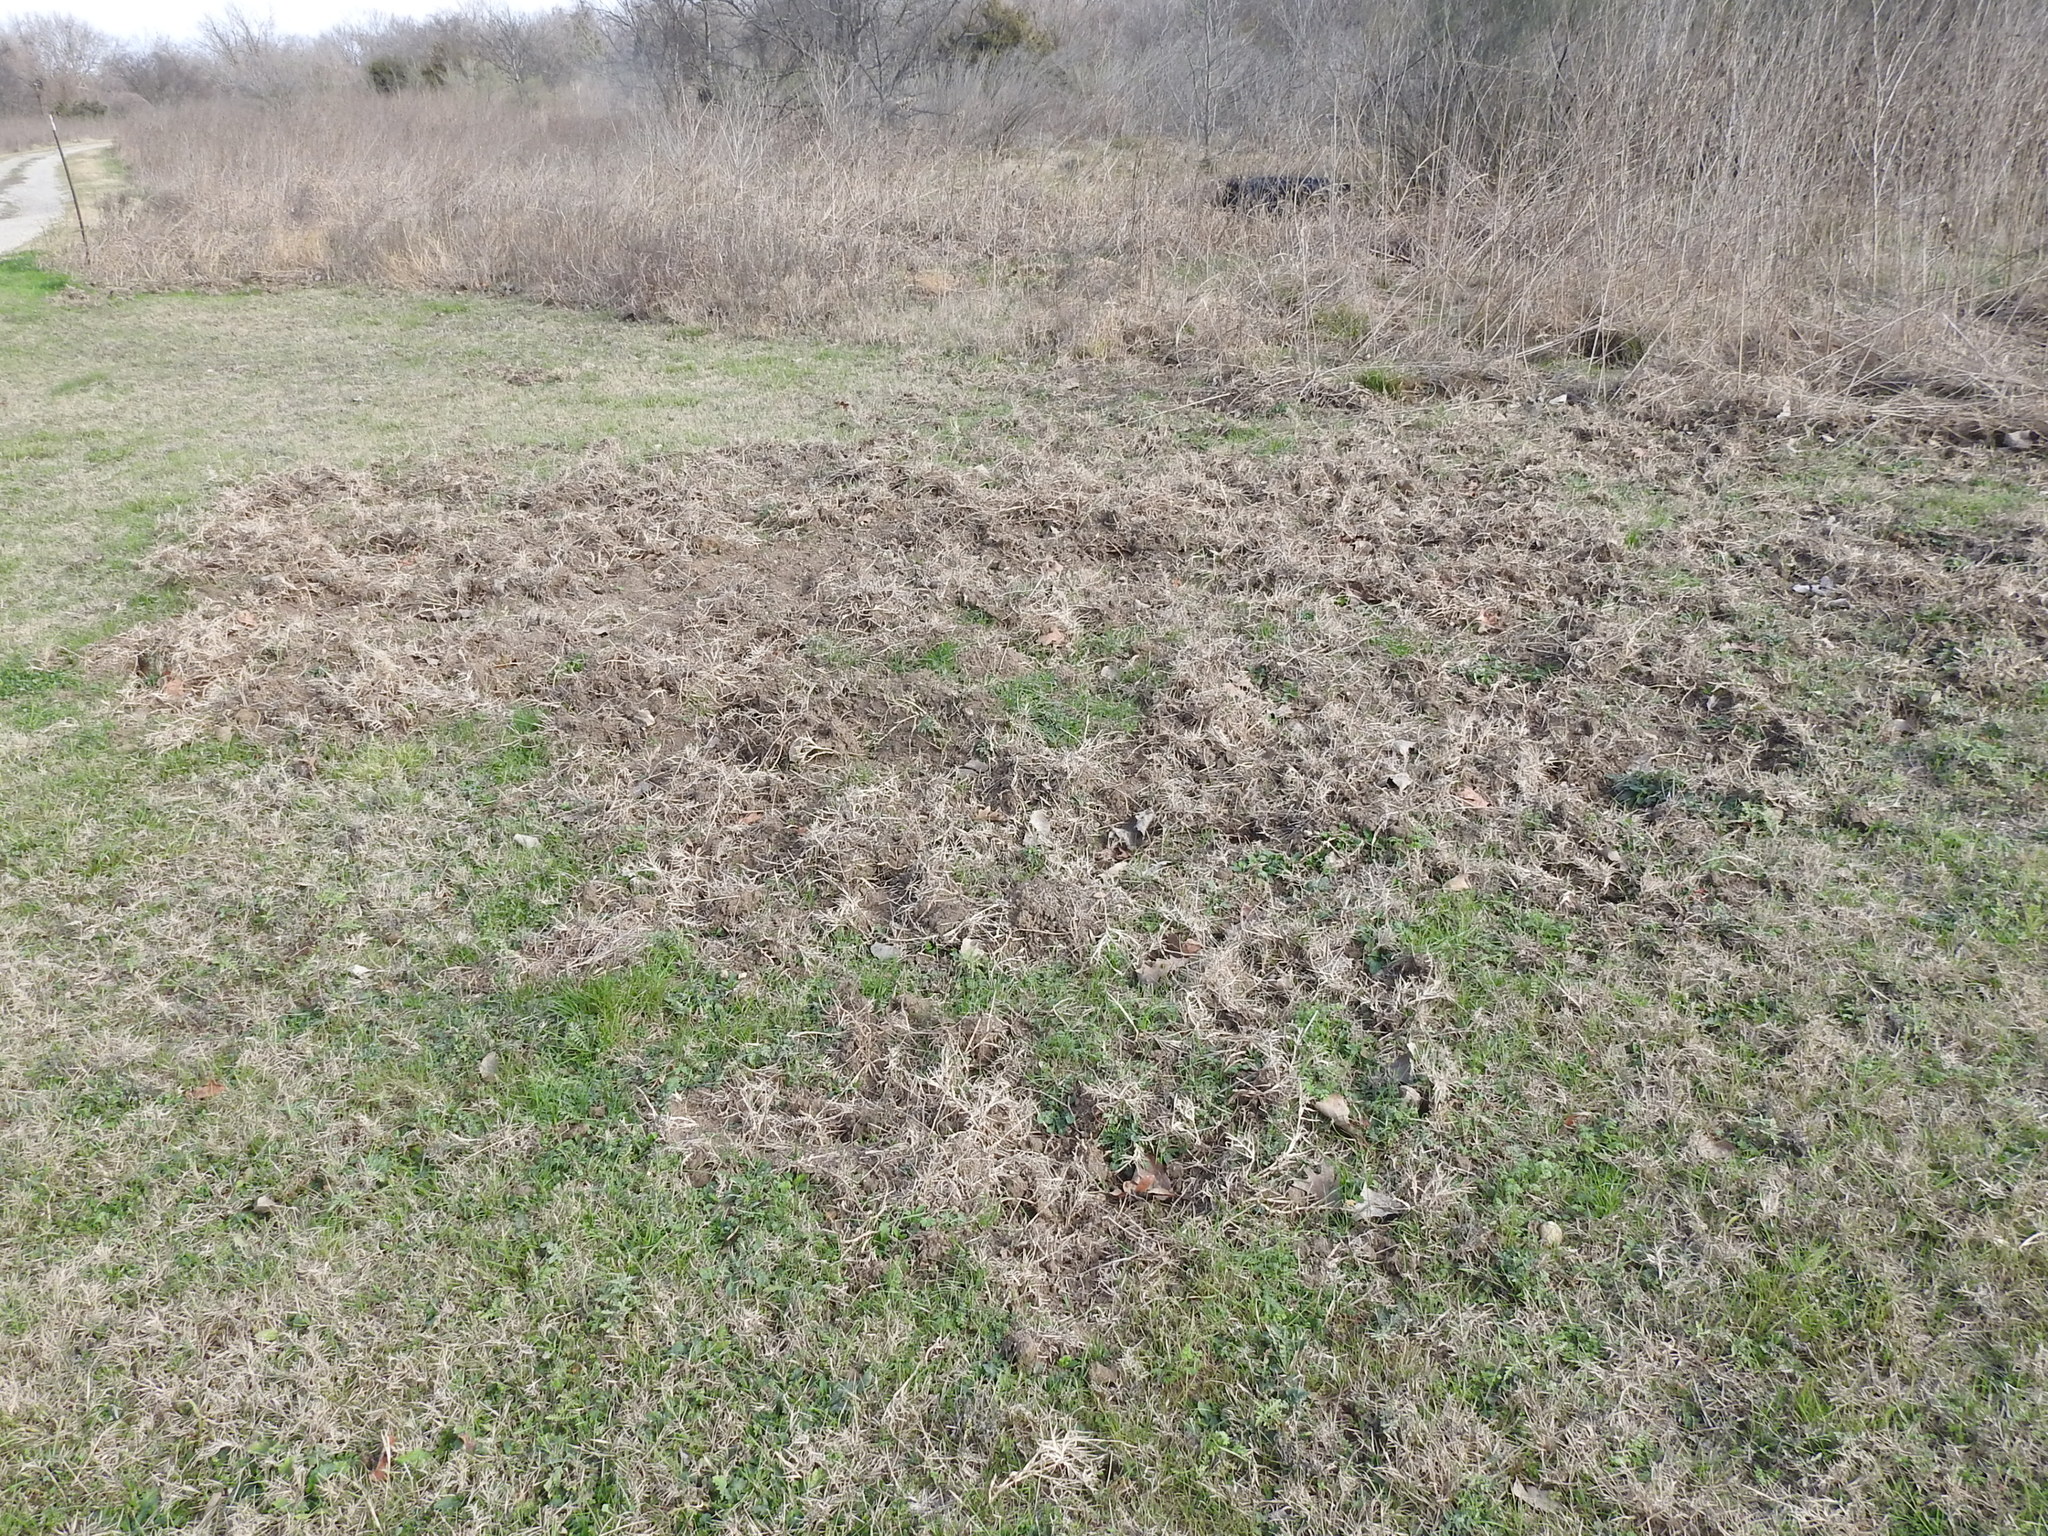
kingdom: Animalia
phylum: Chordata
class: Mammalia
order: Artiodactyla
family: Suidae
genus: Sus
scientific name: Sus scrofa
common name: Wild boar
